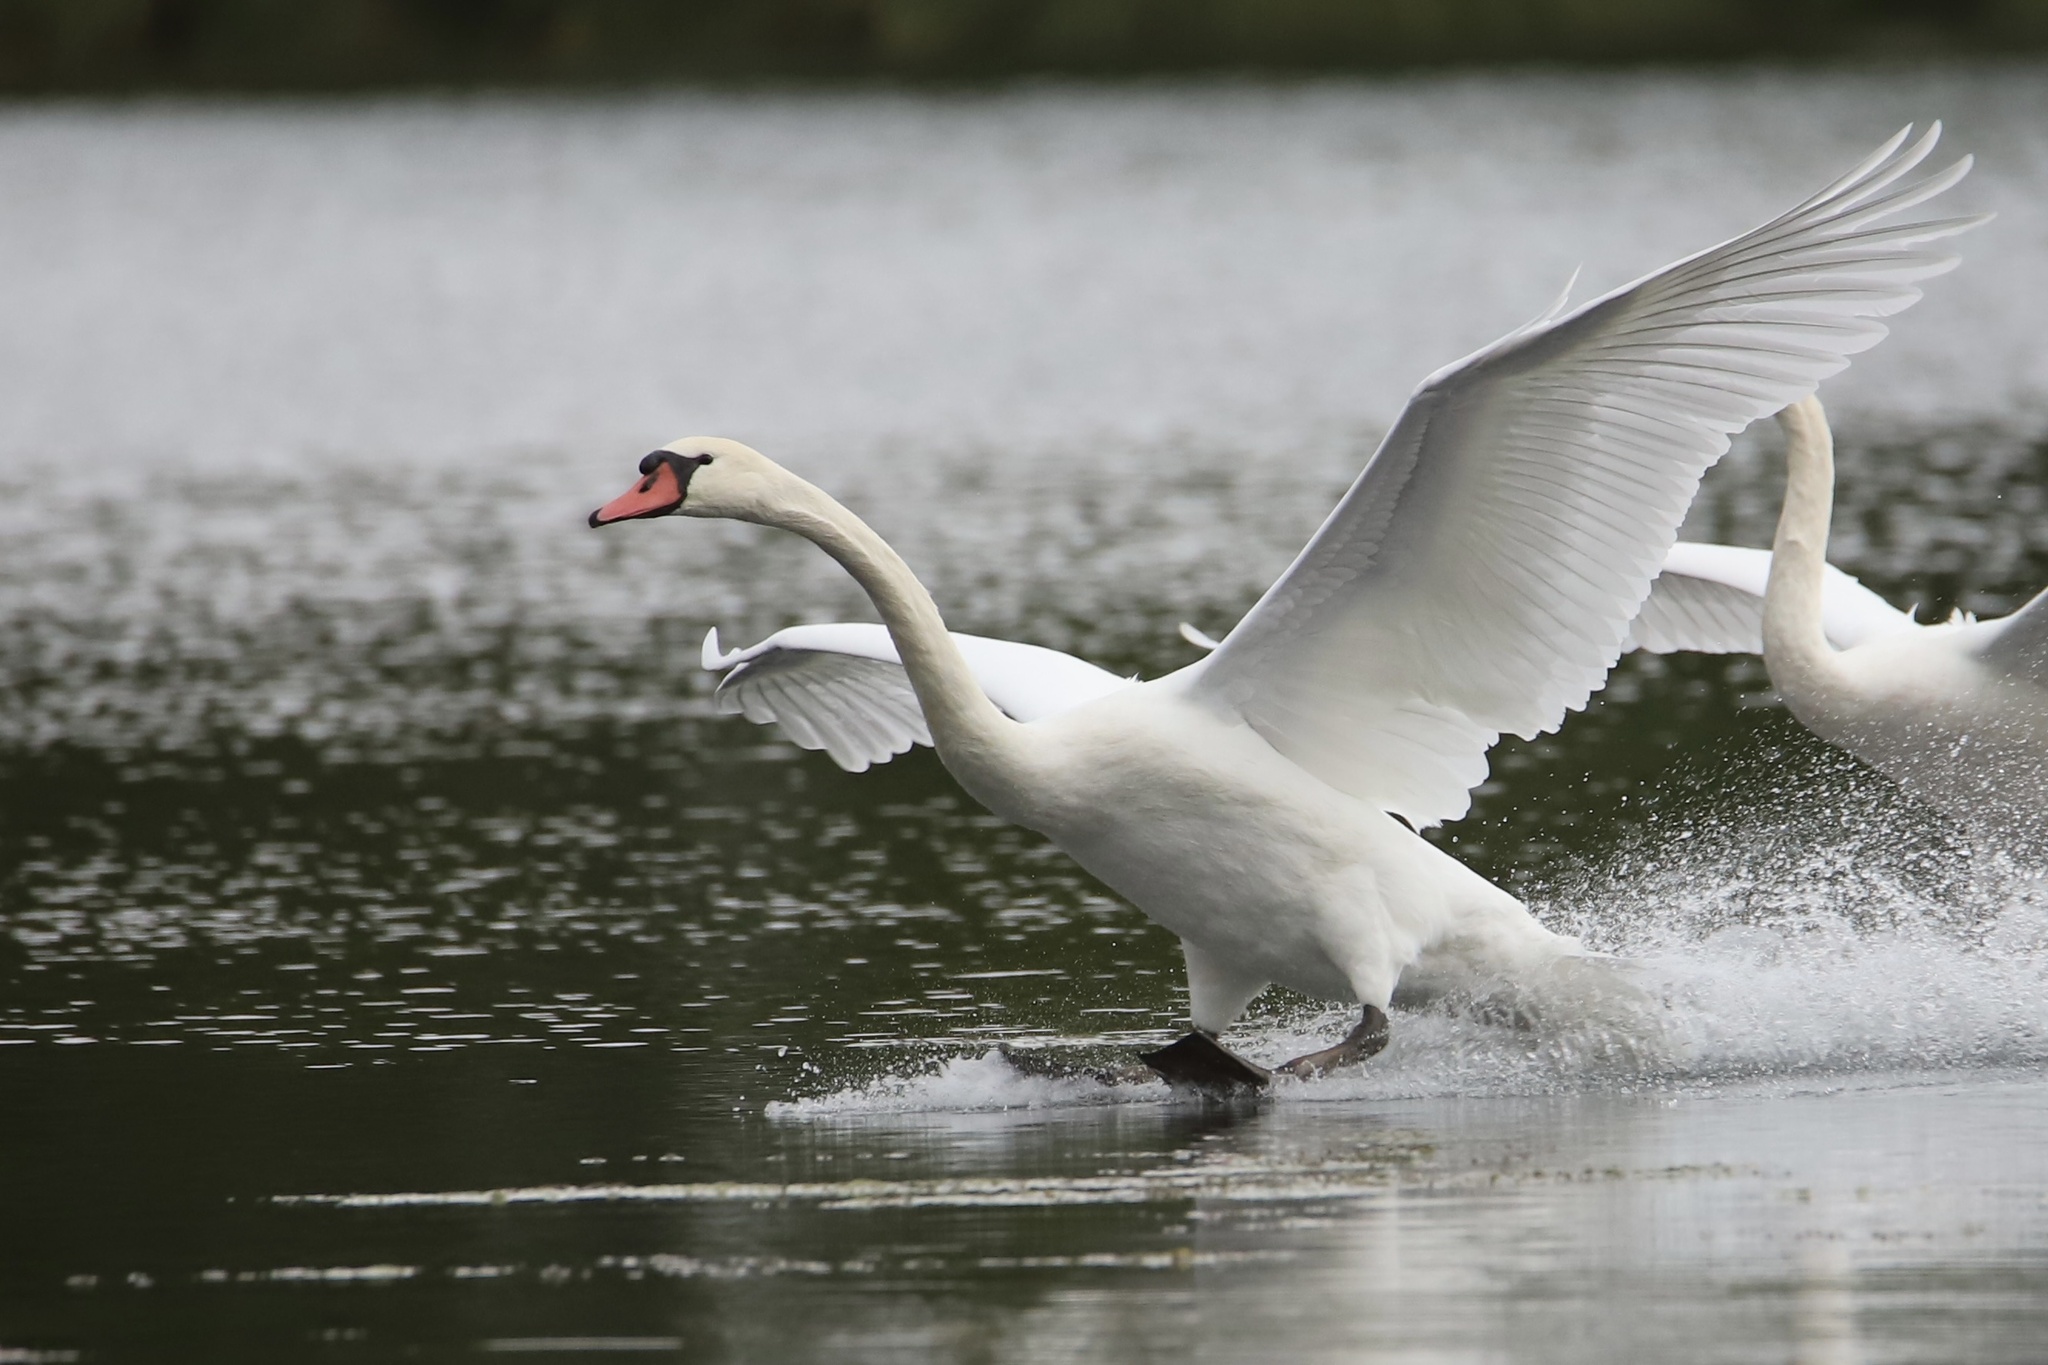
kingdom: Animalia
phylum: Chordata
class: Aves
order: Anseriformes
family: Anatidae
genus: Cygnus
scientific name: Cygnus olor
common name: Mute swan
